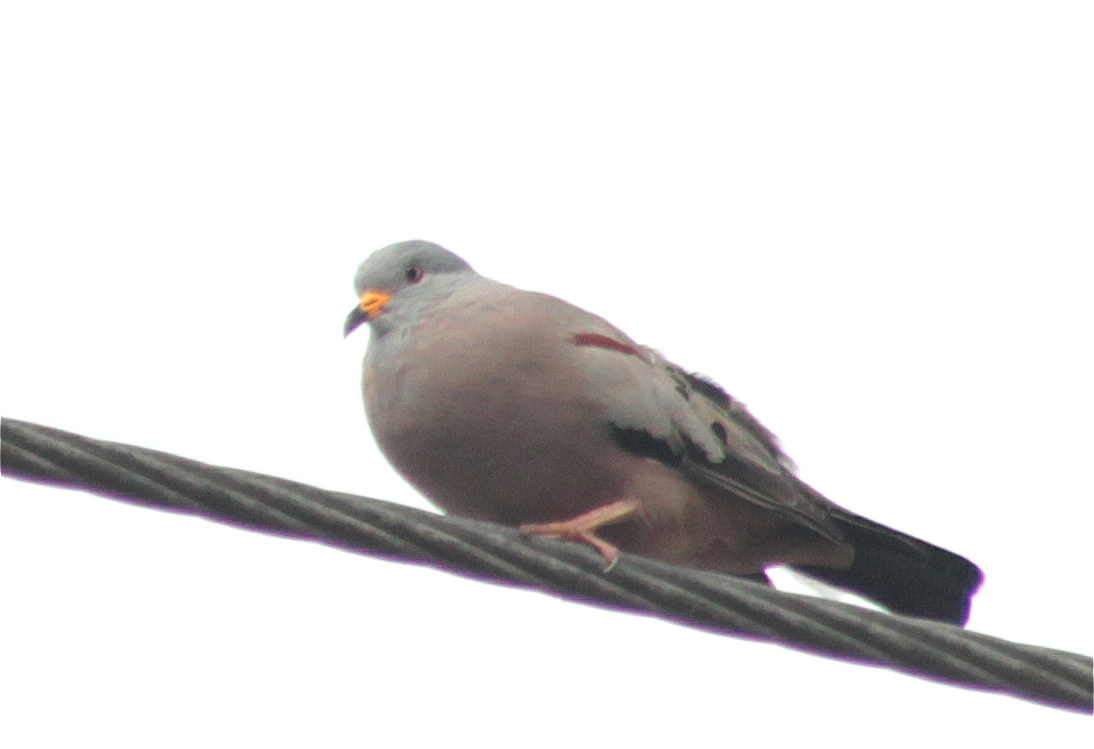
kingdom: Animalia
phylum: Chordata
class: Aves
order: Columbiformes
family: Columbidae
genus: Columbina
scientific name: Columbina cruziana
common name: Croaking ground dove
